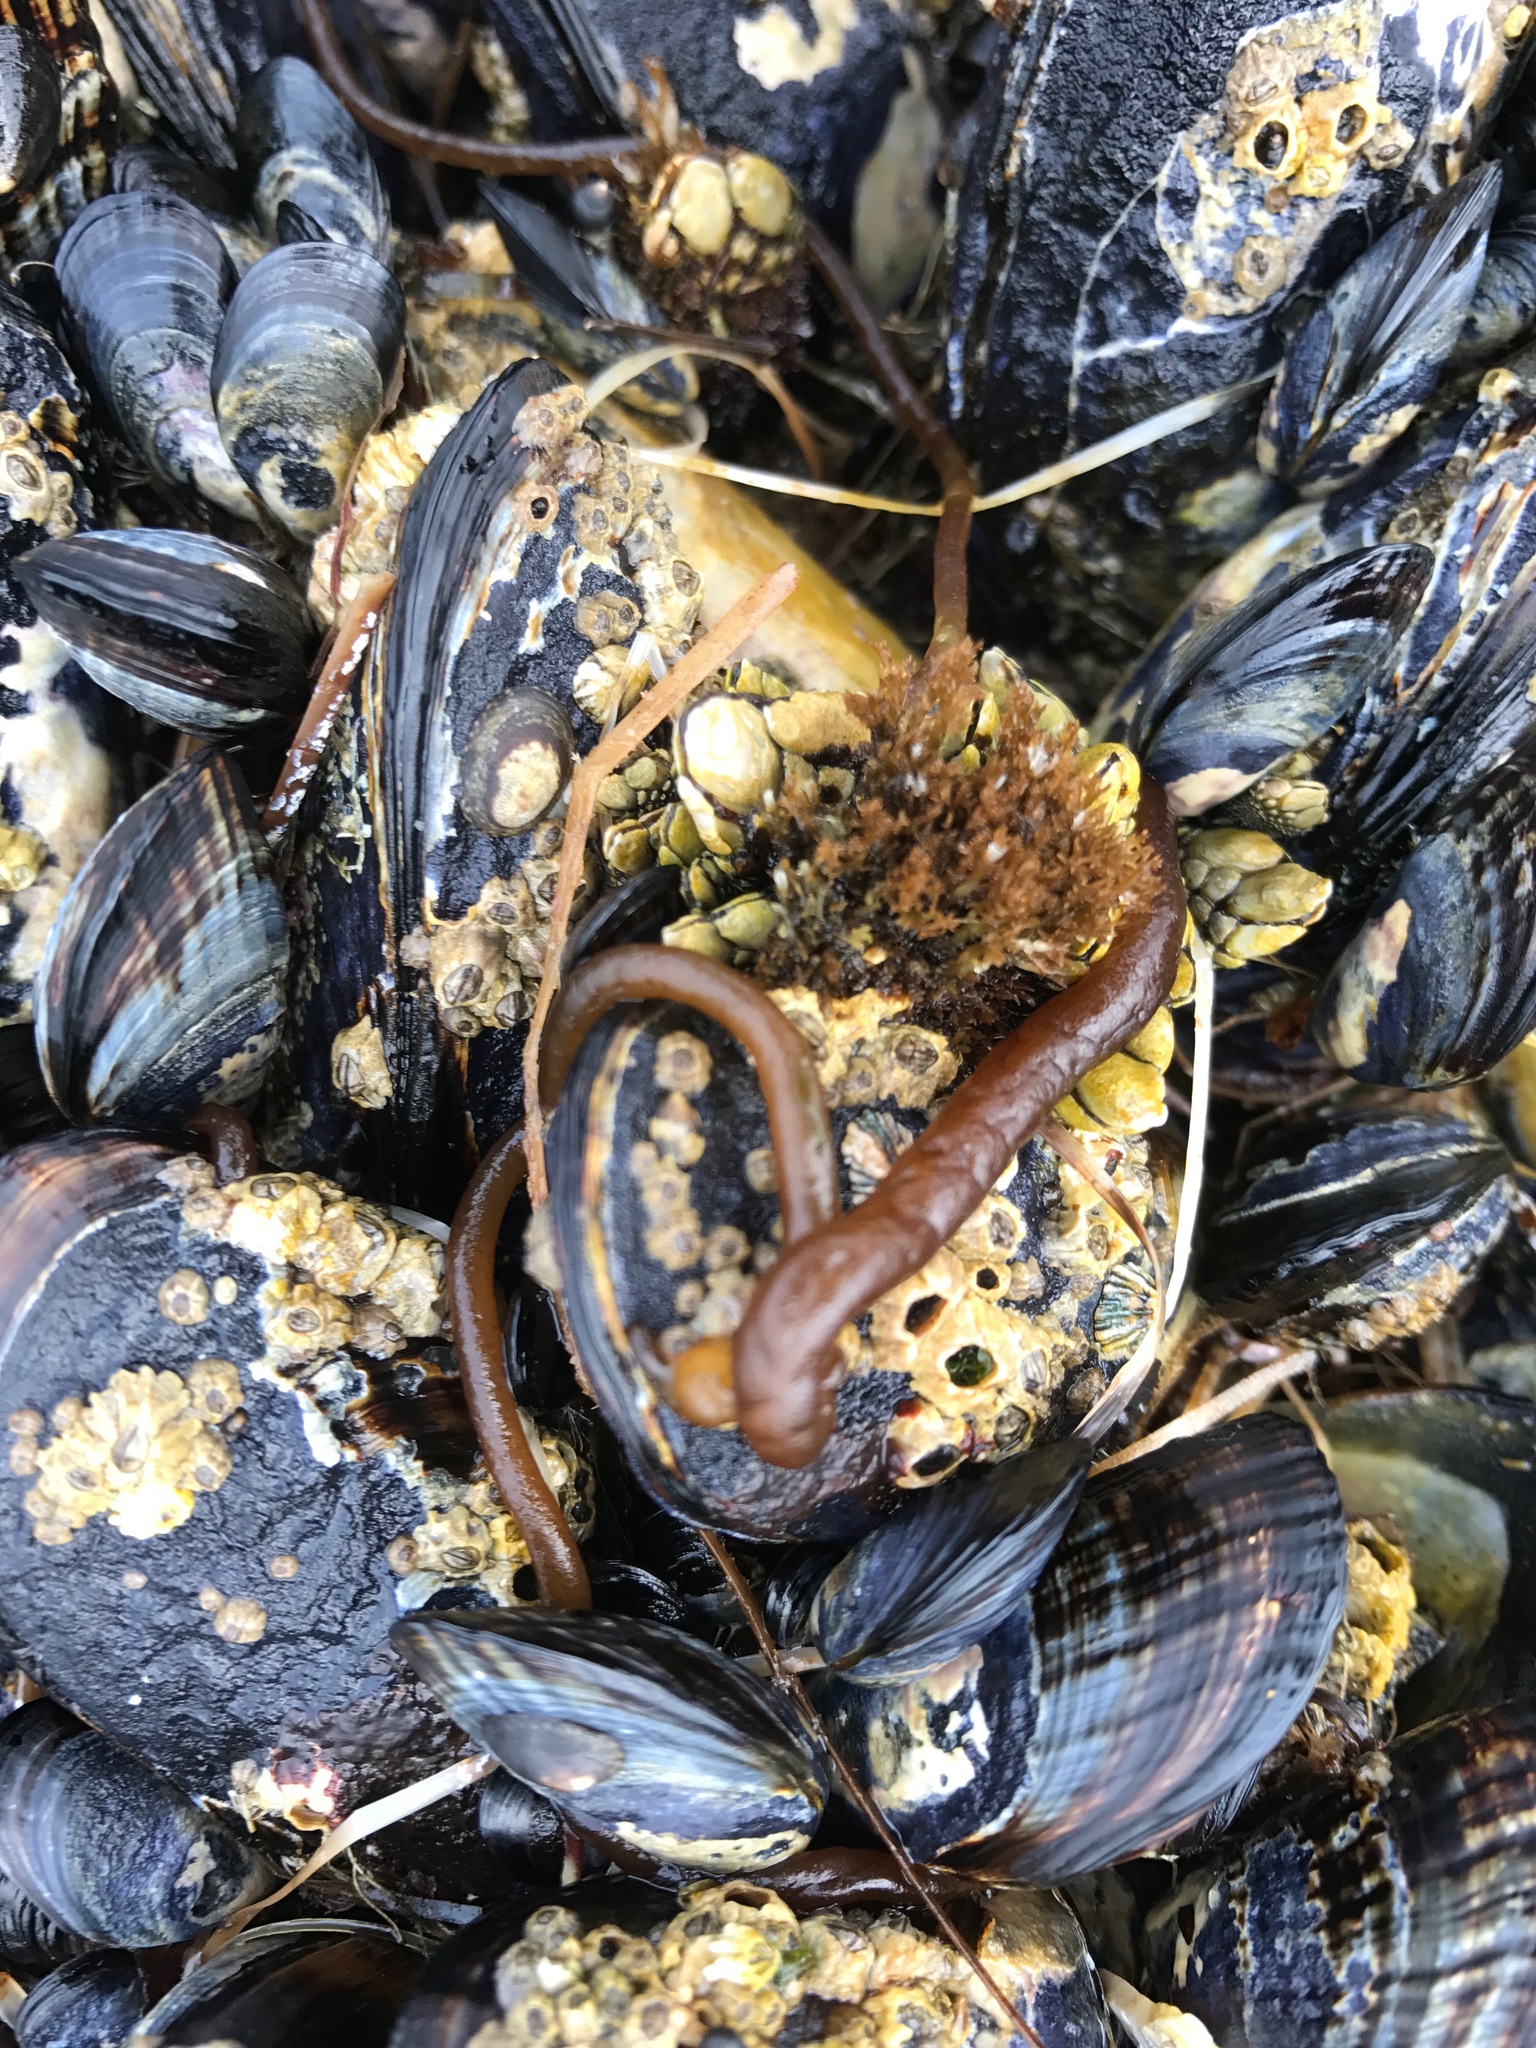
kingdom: Plantae
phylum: Rhodophyta
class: Florideophyceae
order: Nemaliales
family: Nemaliaceae
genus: Nemalion
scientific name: Nemalion elminthoides
